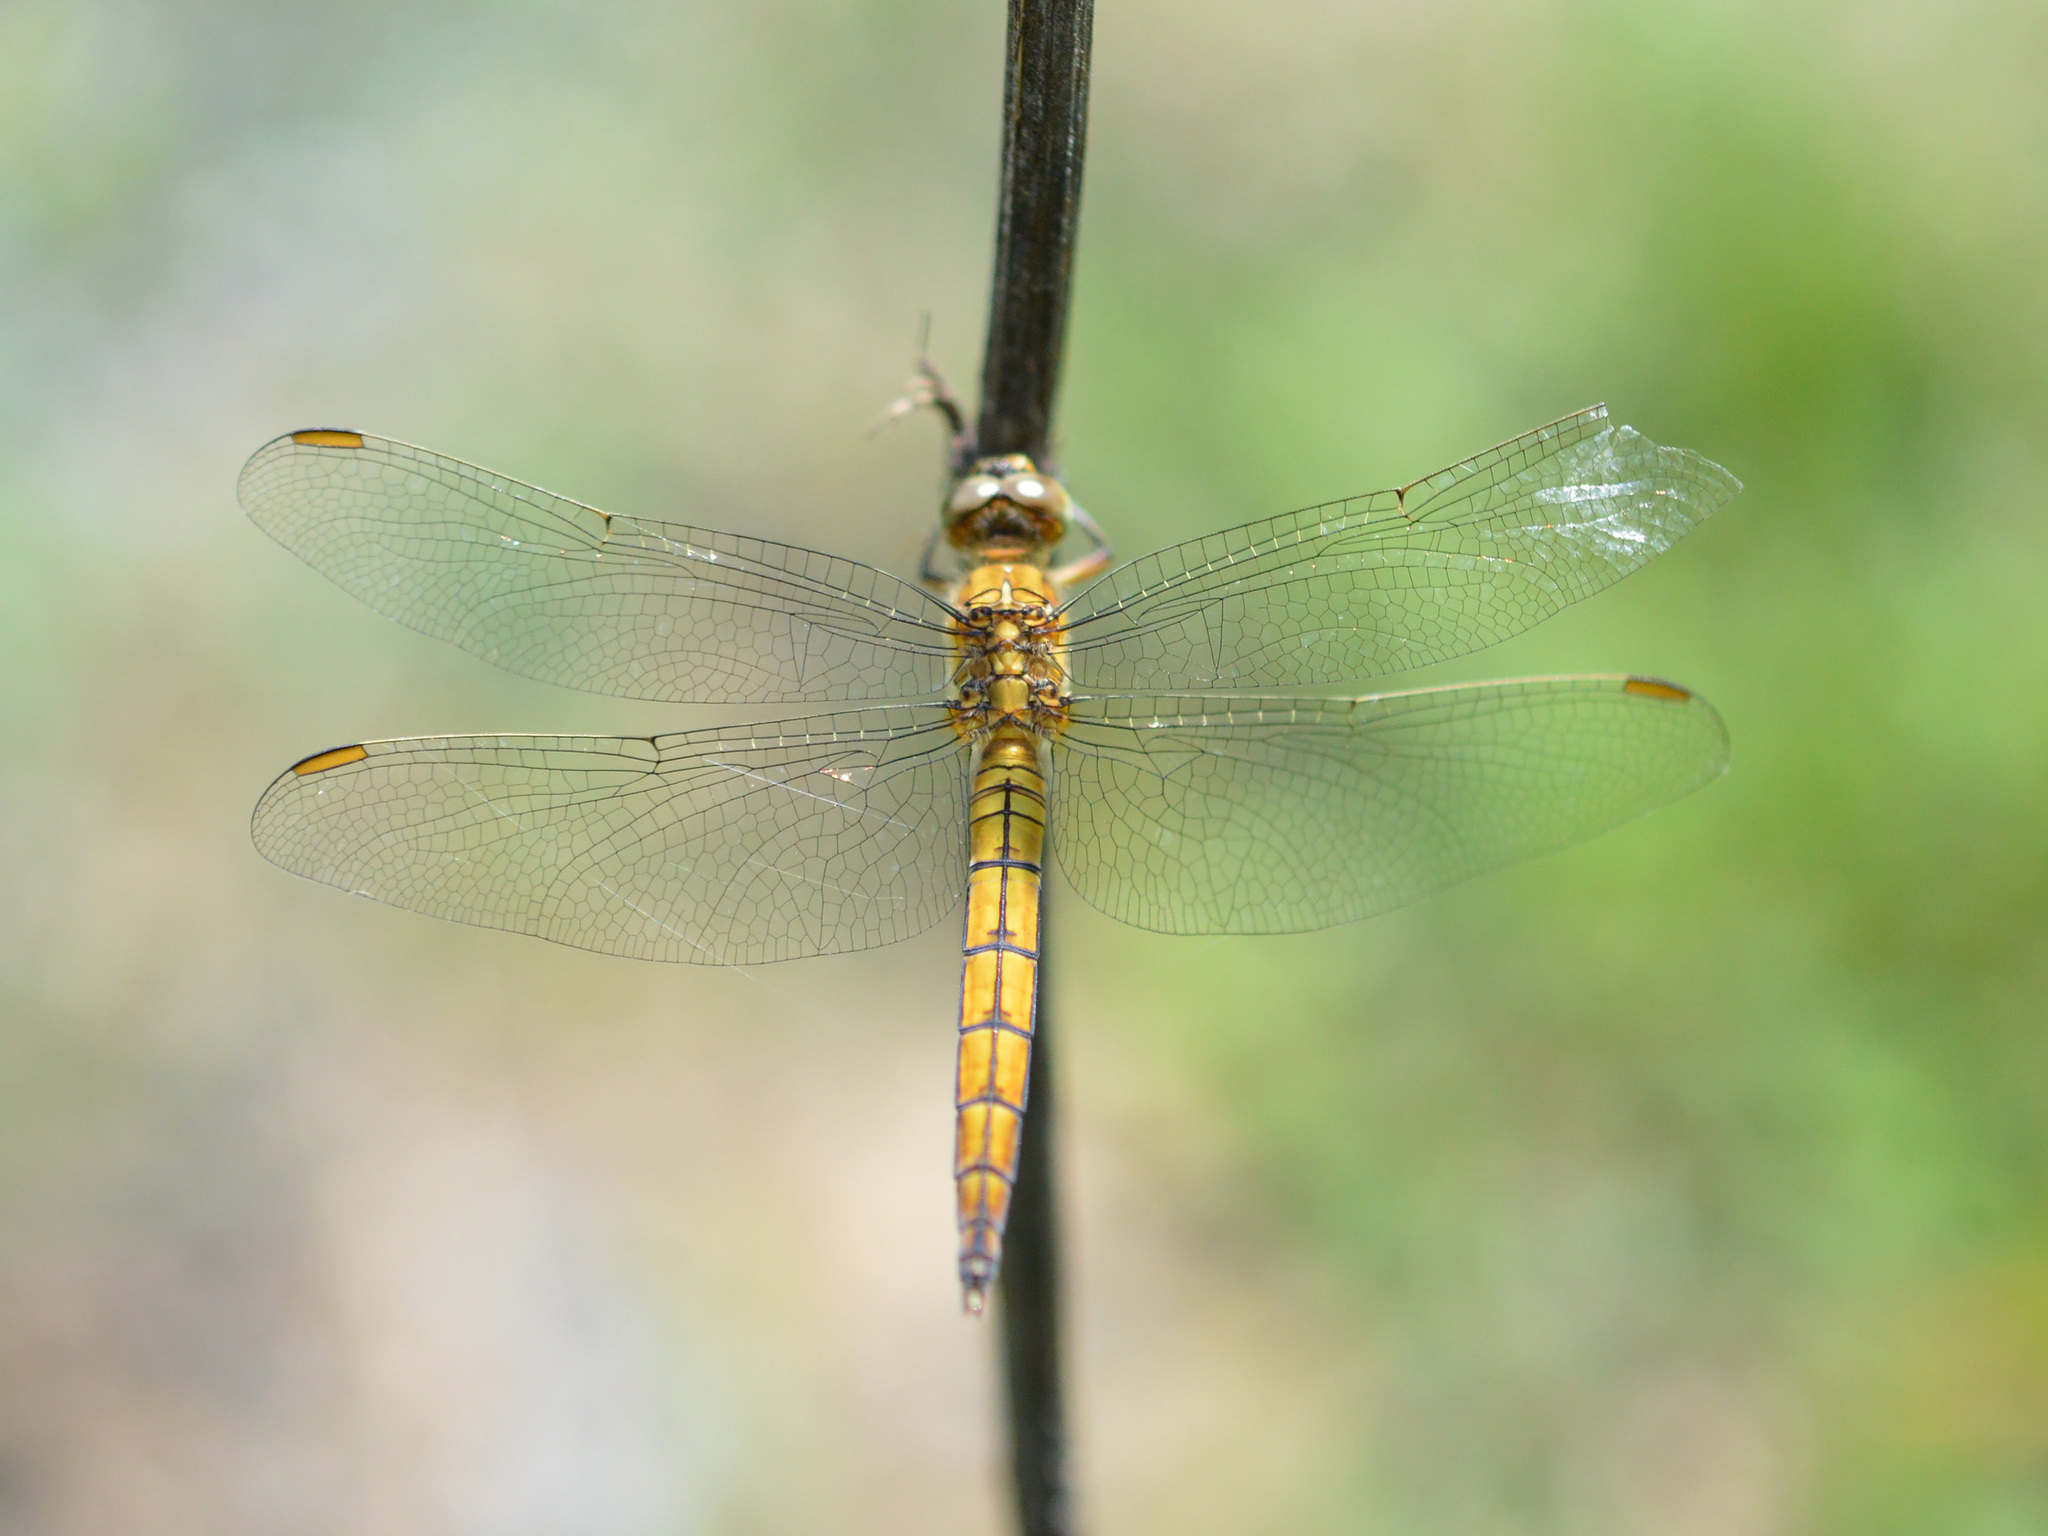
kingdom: Animalia
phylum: Arthropoda
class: Insecta
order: Odonata
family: Libellulidae
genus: Orthetrum
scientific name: Orthetrum coerulescens
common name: Keeled skimmer
